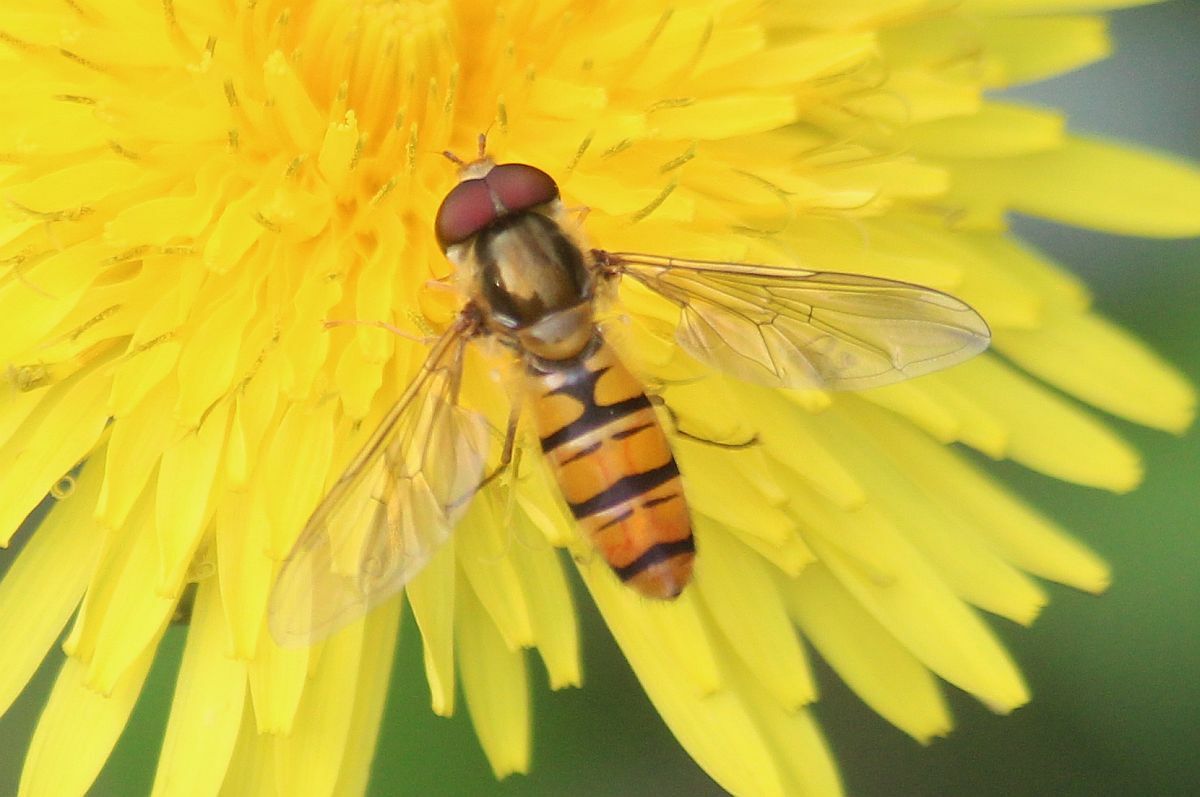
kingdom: Animalia
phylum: Arthropoda
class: Insecta
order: Diptera
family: Syrphidae
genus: Episyrphus
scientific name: Episyrphus balteatus
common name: Marmalade hoverfly
